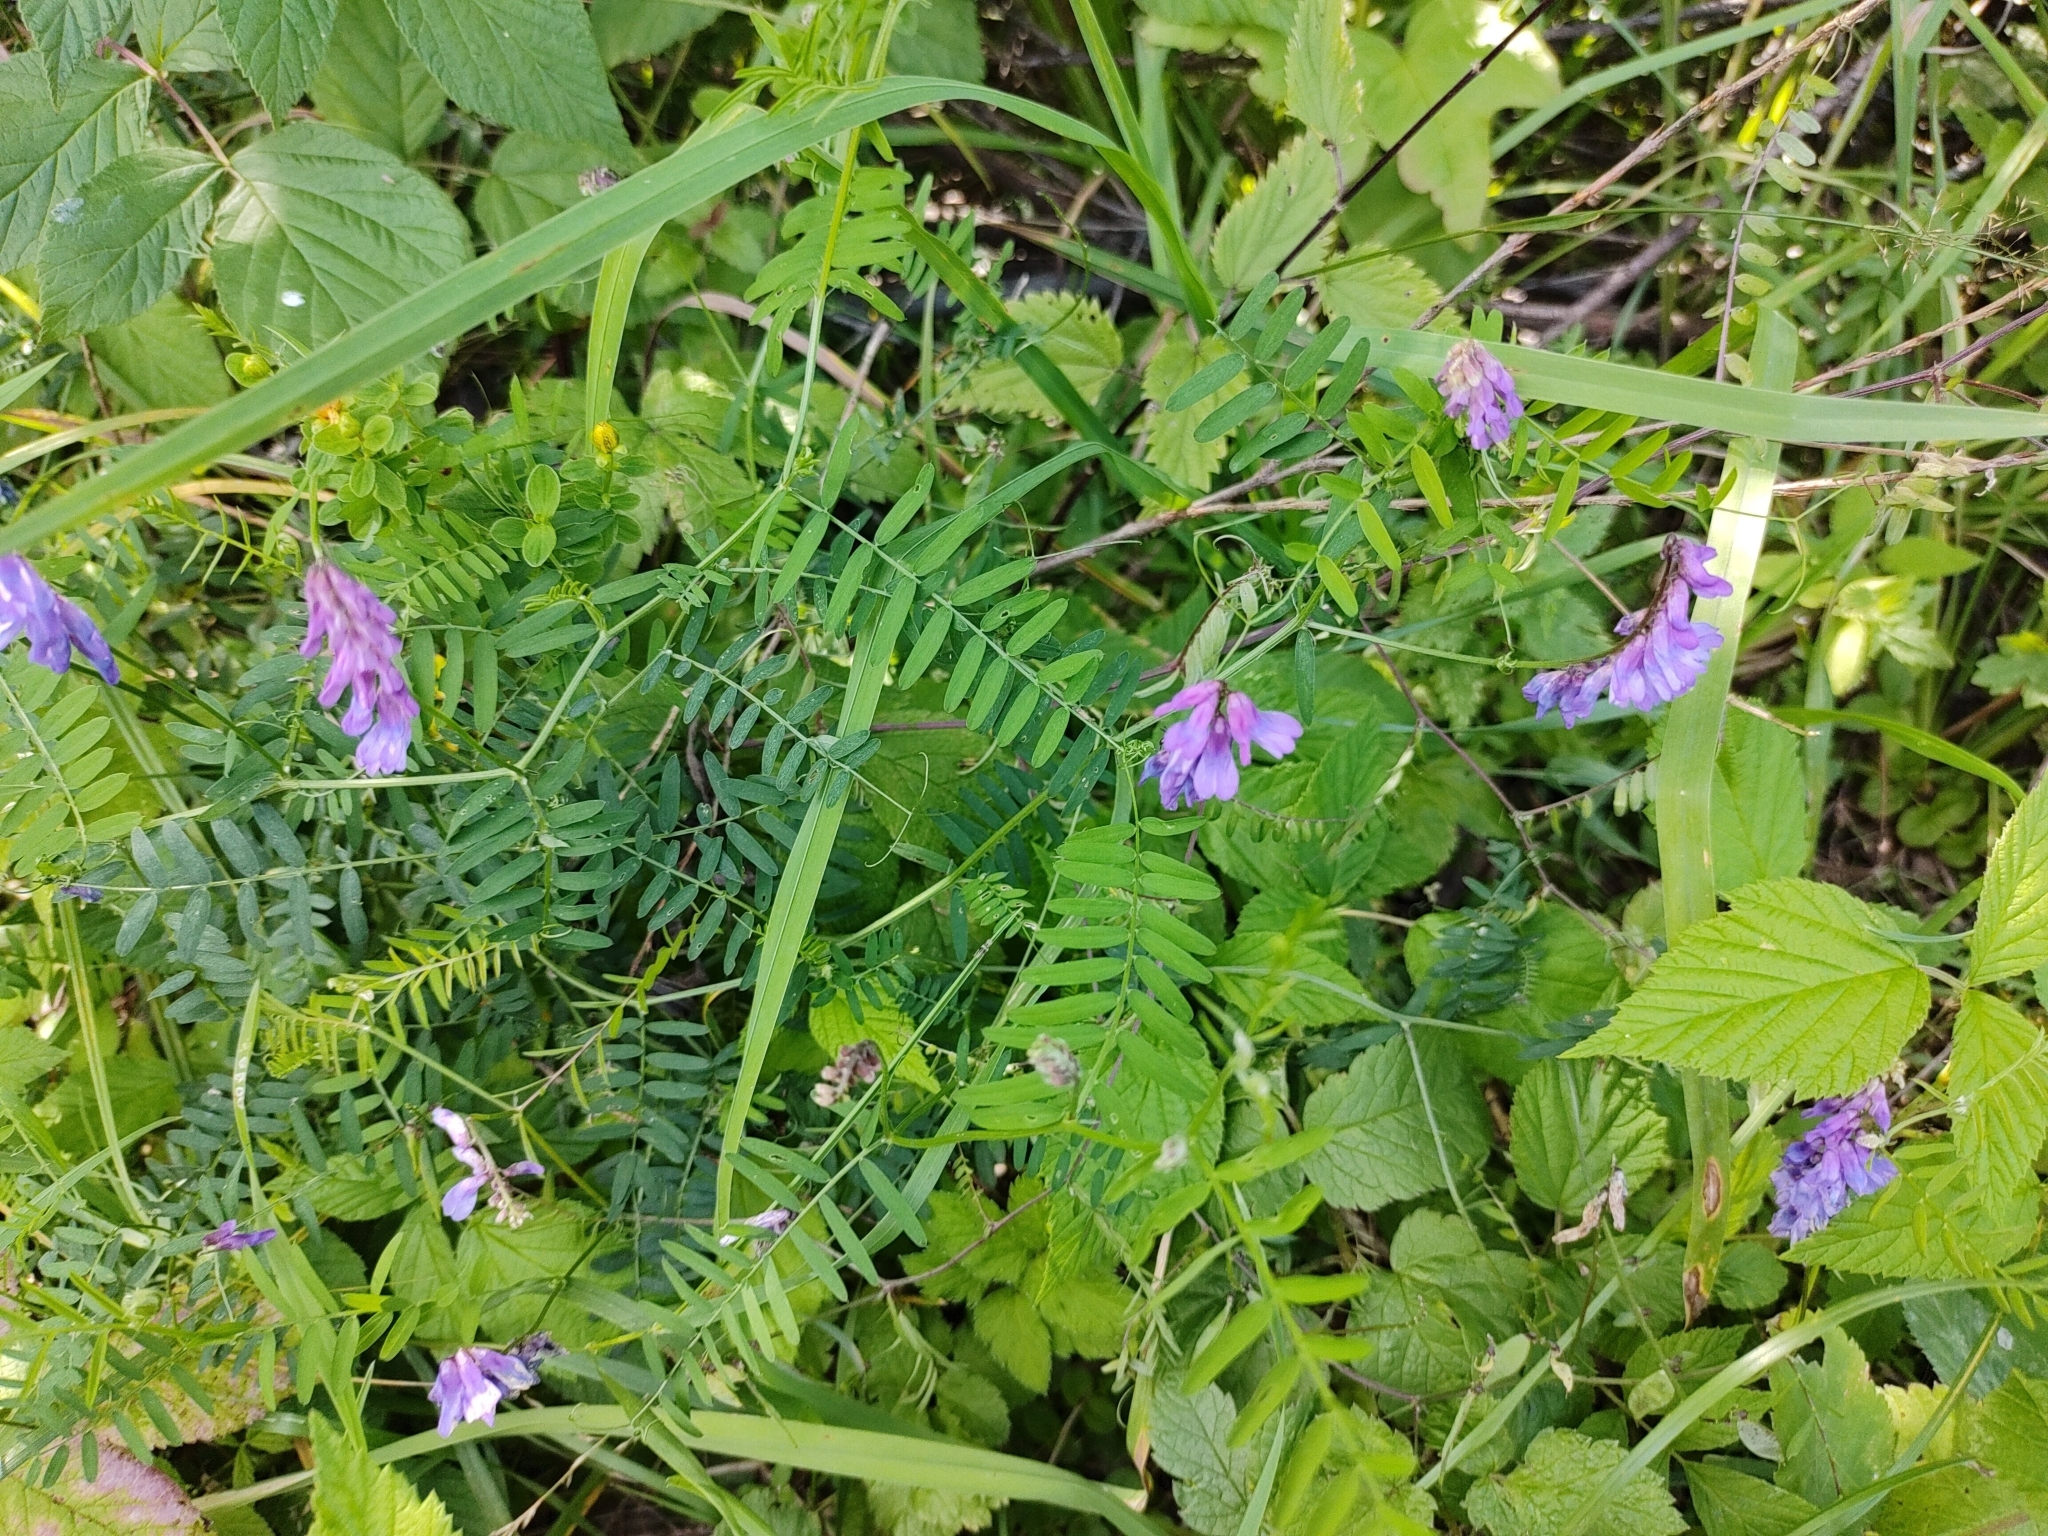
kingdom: Plantae
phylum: Tracheophyta
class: Magnoliopsida
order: Fabales
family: Fabaceae
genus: Vicia
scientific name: Vicia cracca
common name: Bird vetch
